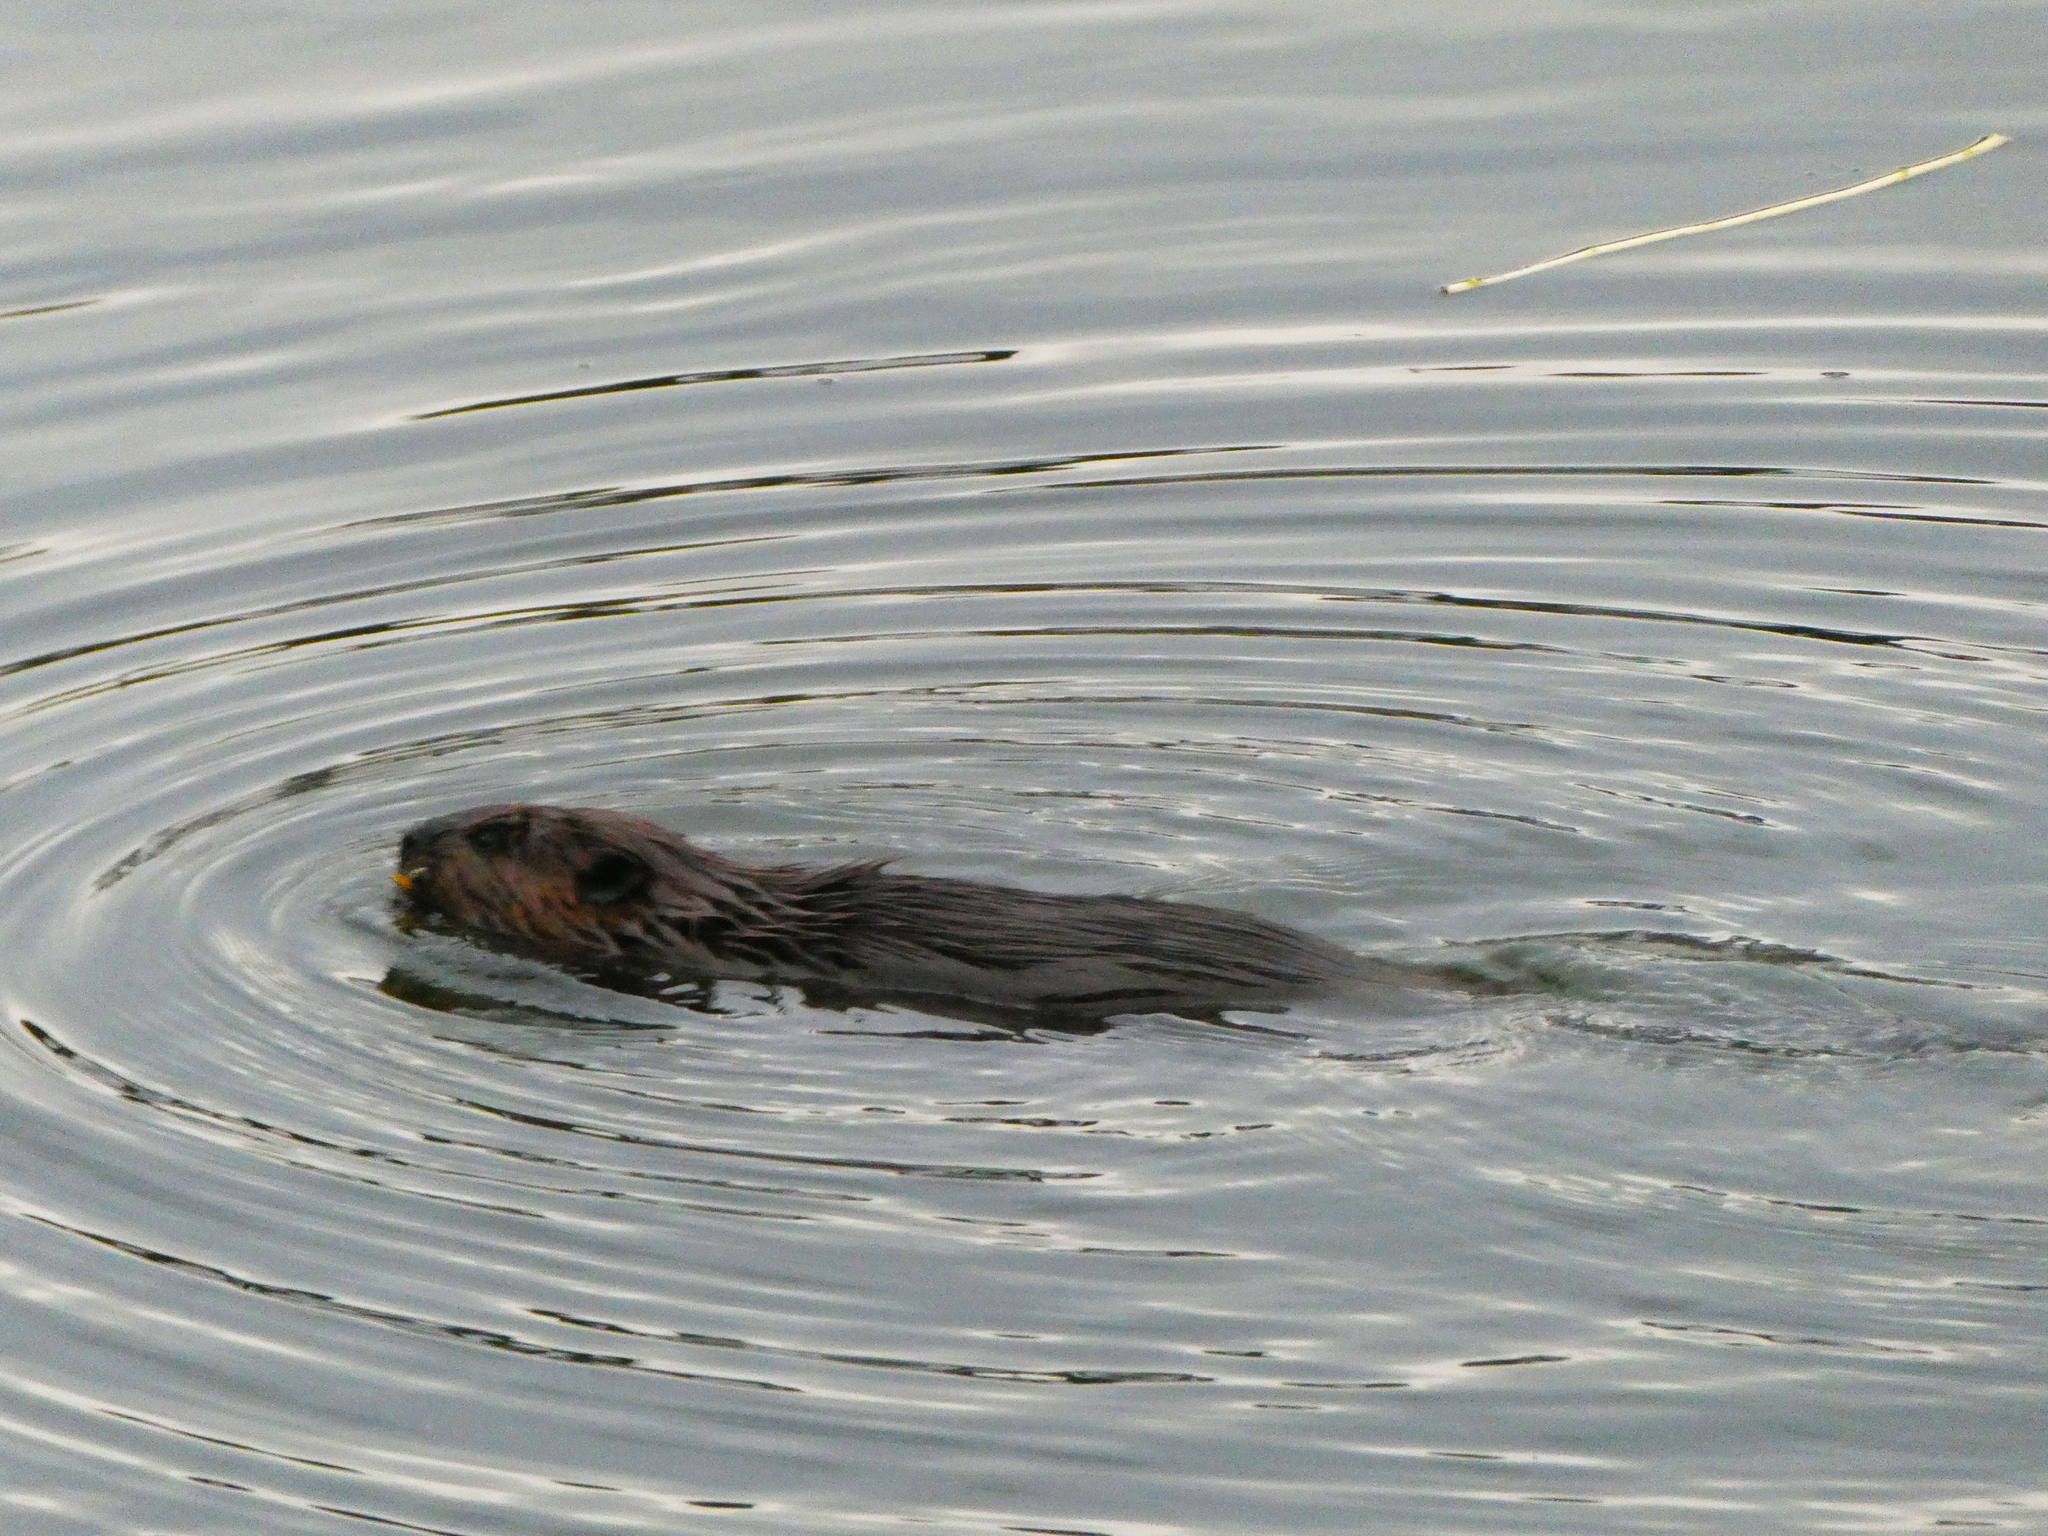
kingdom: Animalia
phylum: Chordata
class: Mammalia
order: Rodentia
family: Castoridae
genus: Castor
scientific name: Castor canadensis
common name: American beaver
